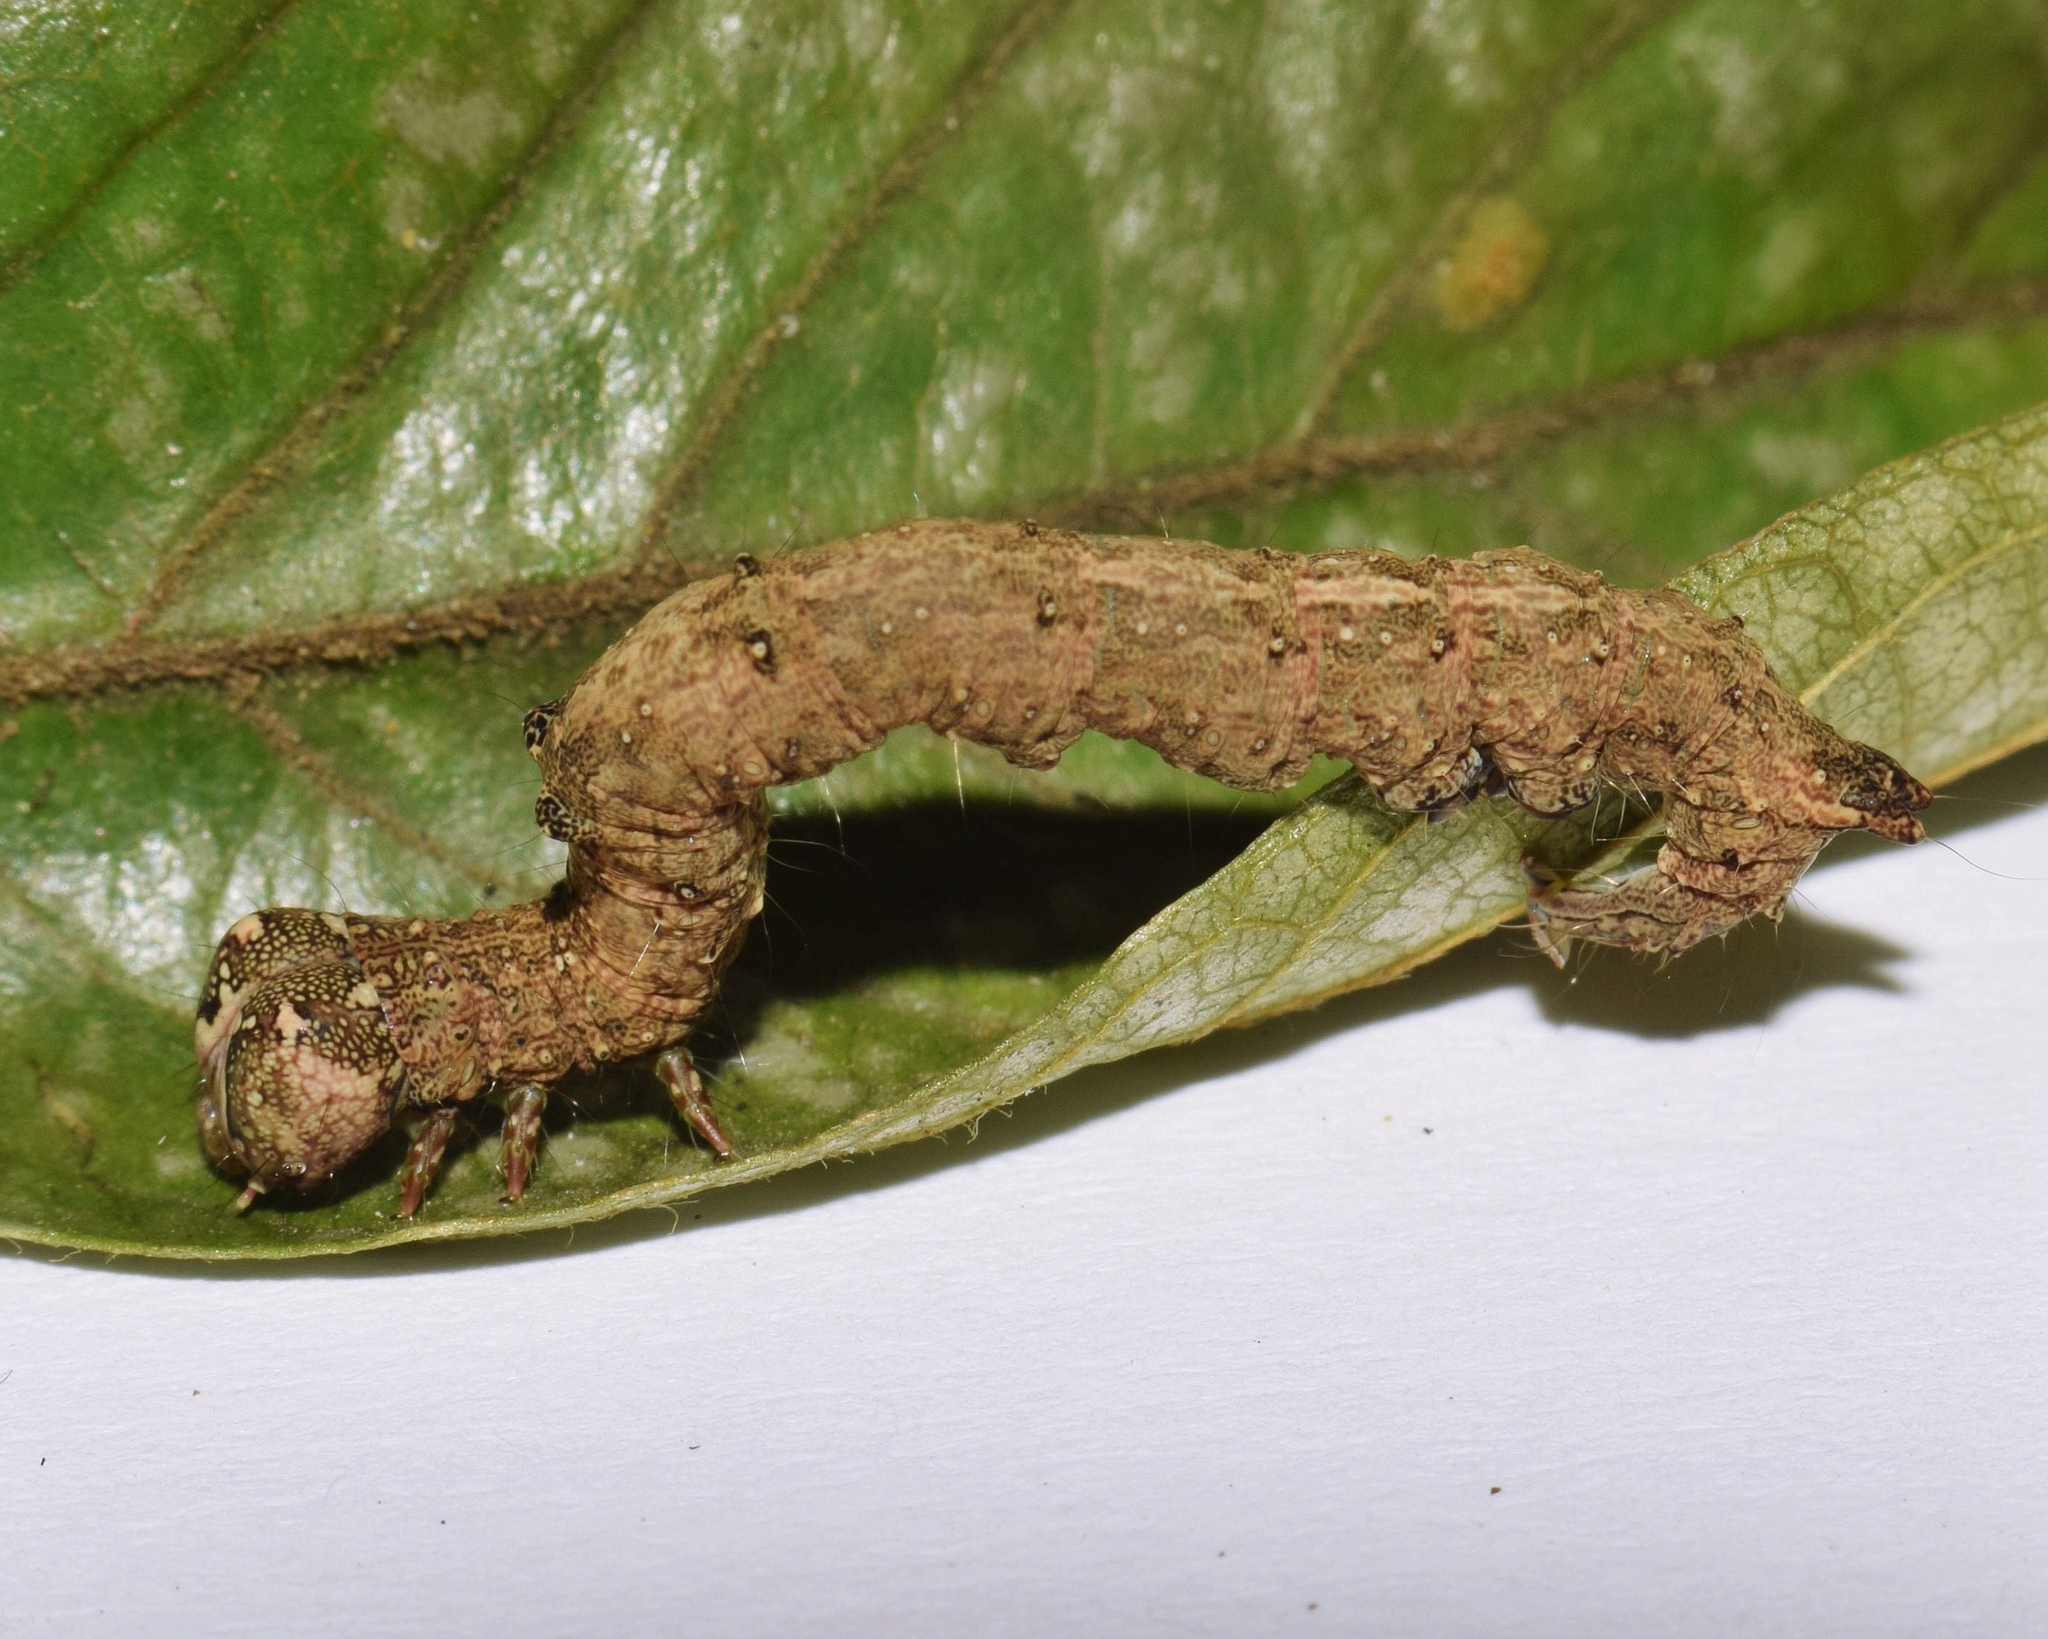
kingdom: Animalia
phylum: Arthropoda
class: Insecta
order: Lepidoptera
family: Erebidae
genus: Parallelia
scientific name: Parallelia proxima
